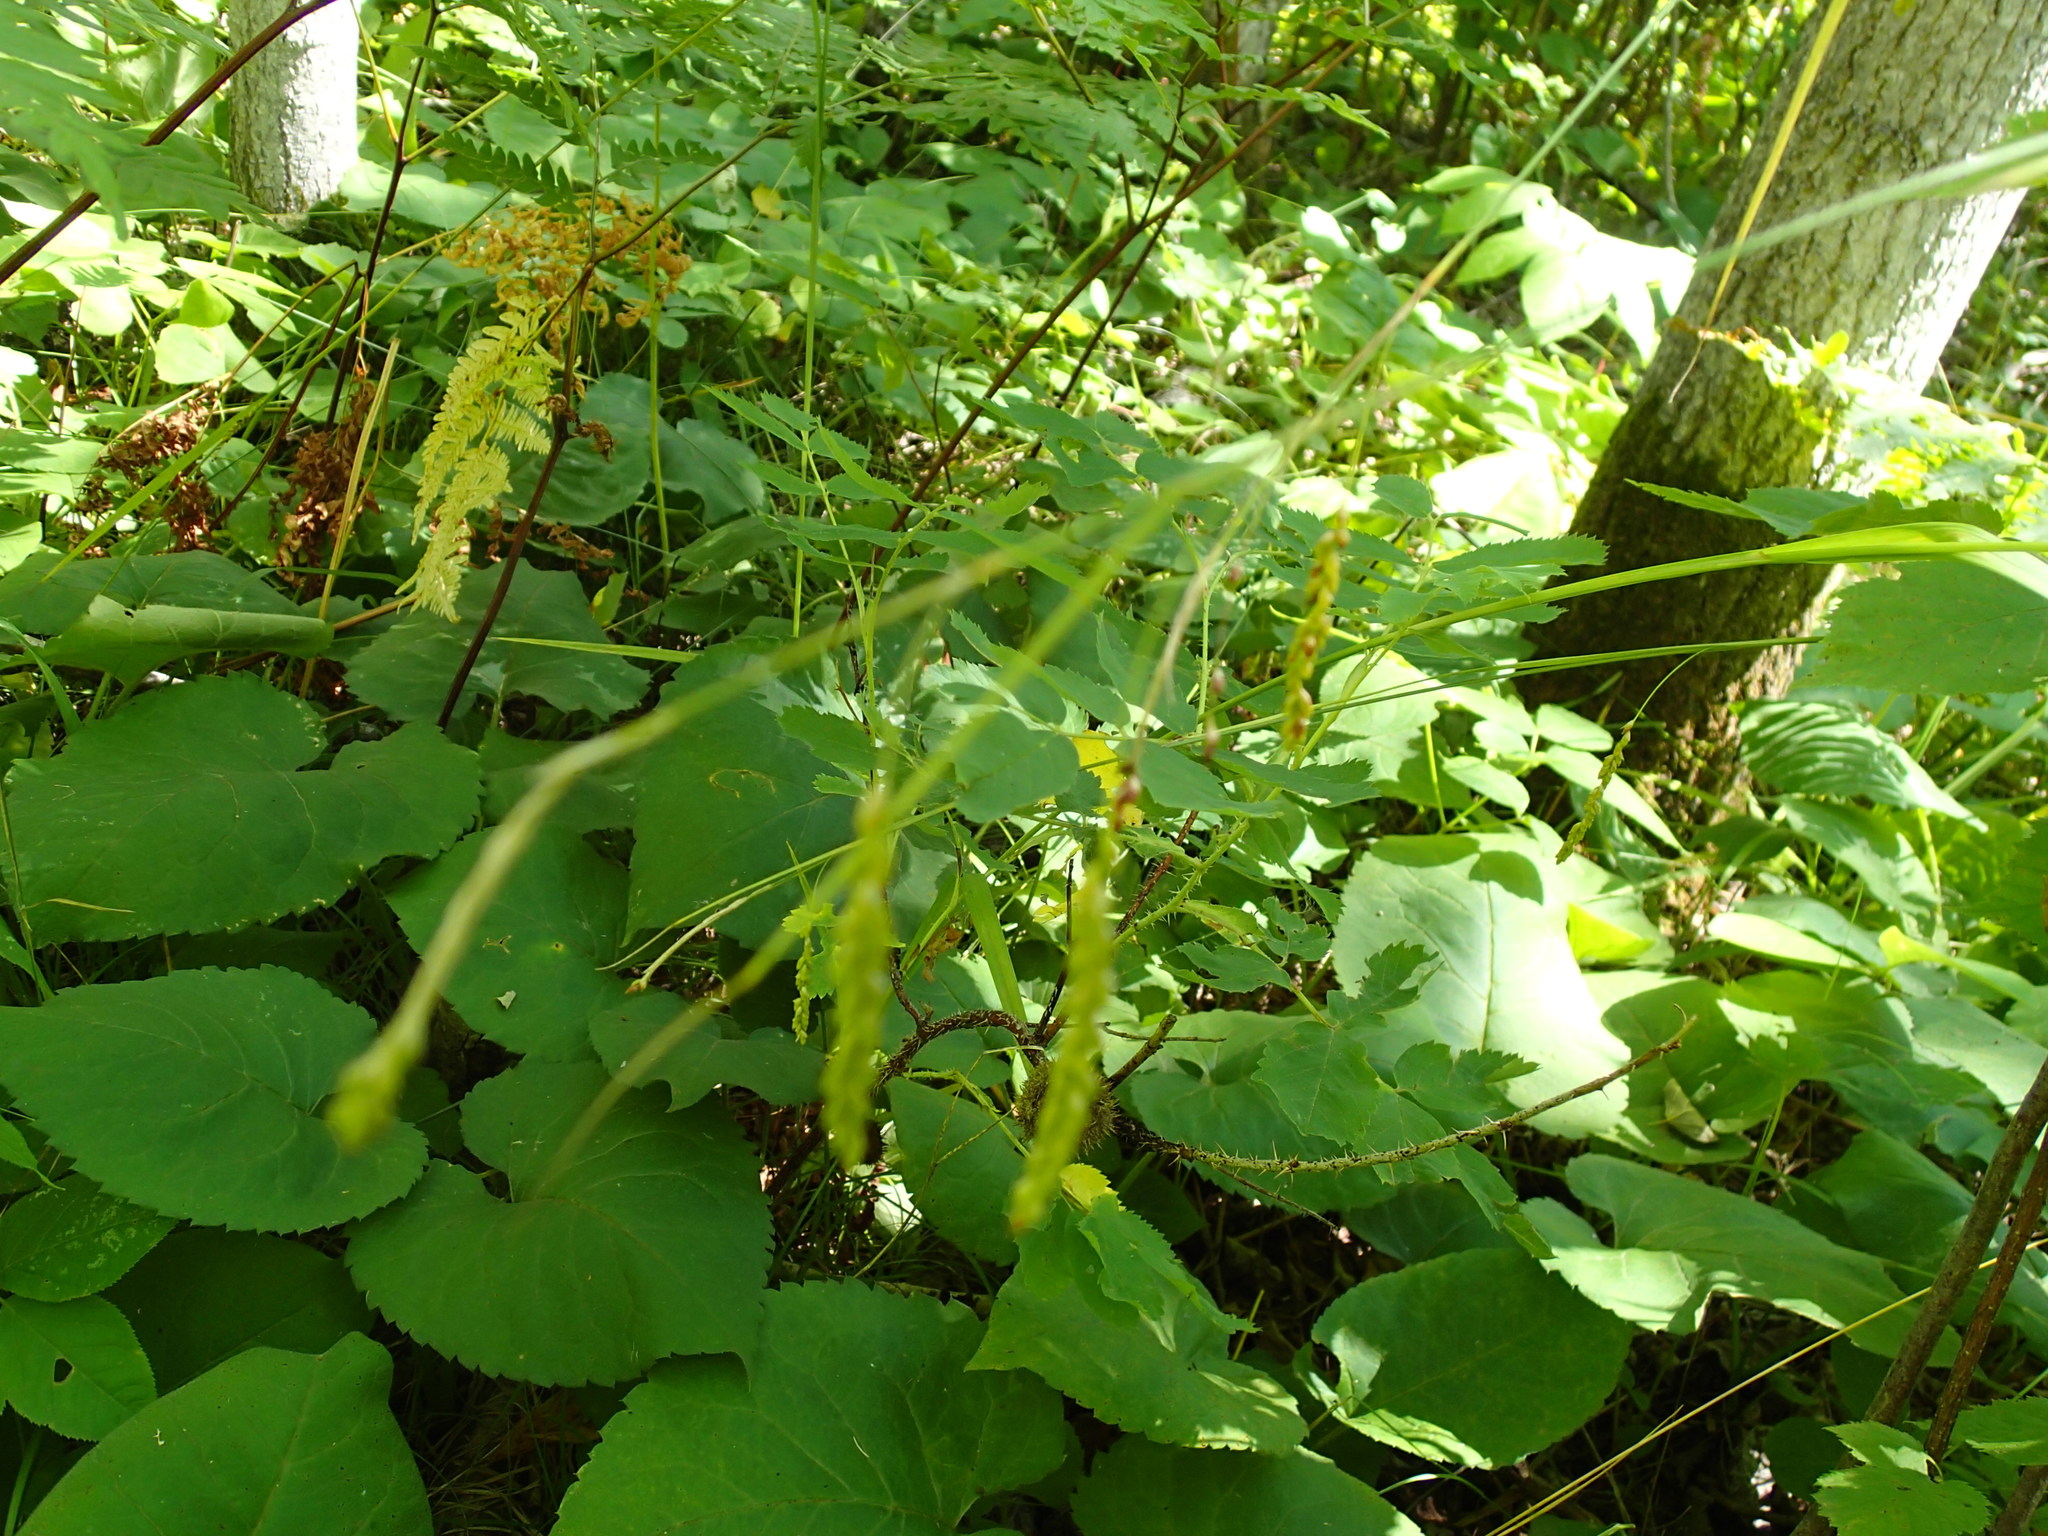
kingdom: Plantae
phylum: Tracheophyta
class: Magnoliopsida
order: Asterales
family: Asteraceae
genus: Eurybia
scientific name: Eurybia macrophylla
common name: Big-leaved aster
